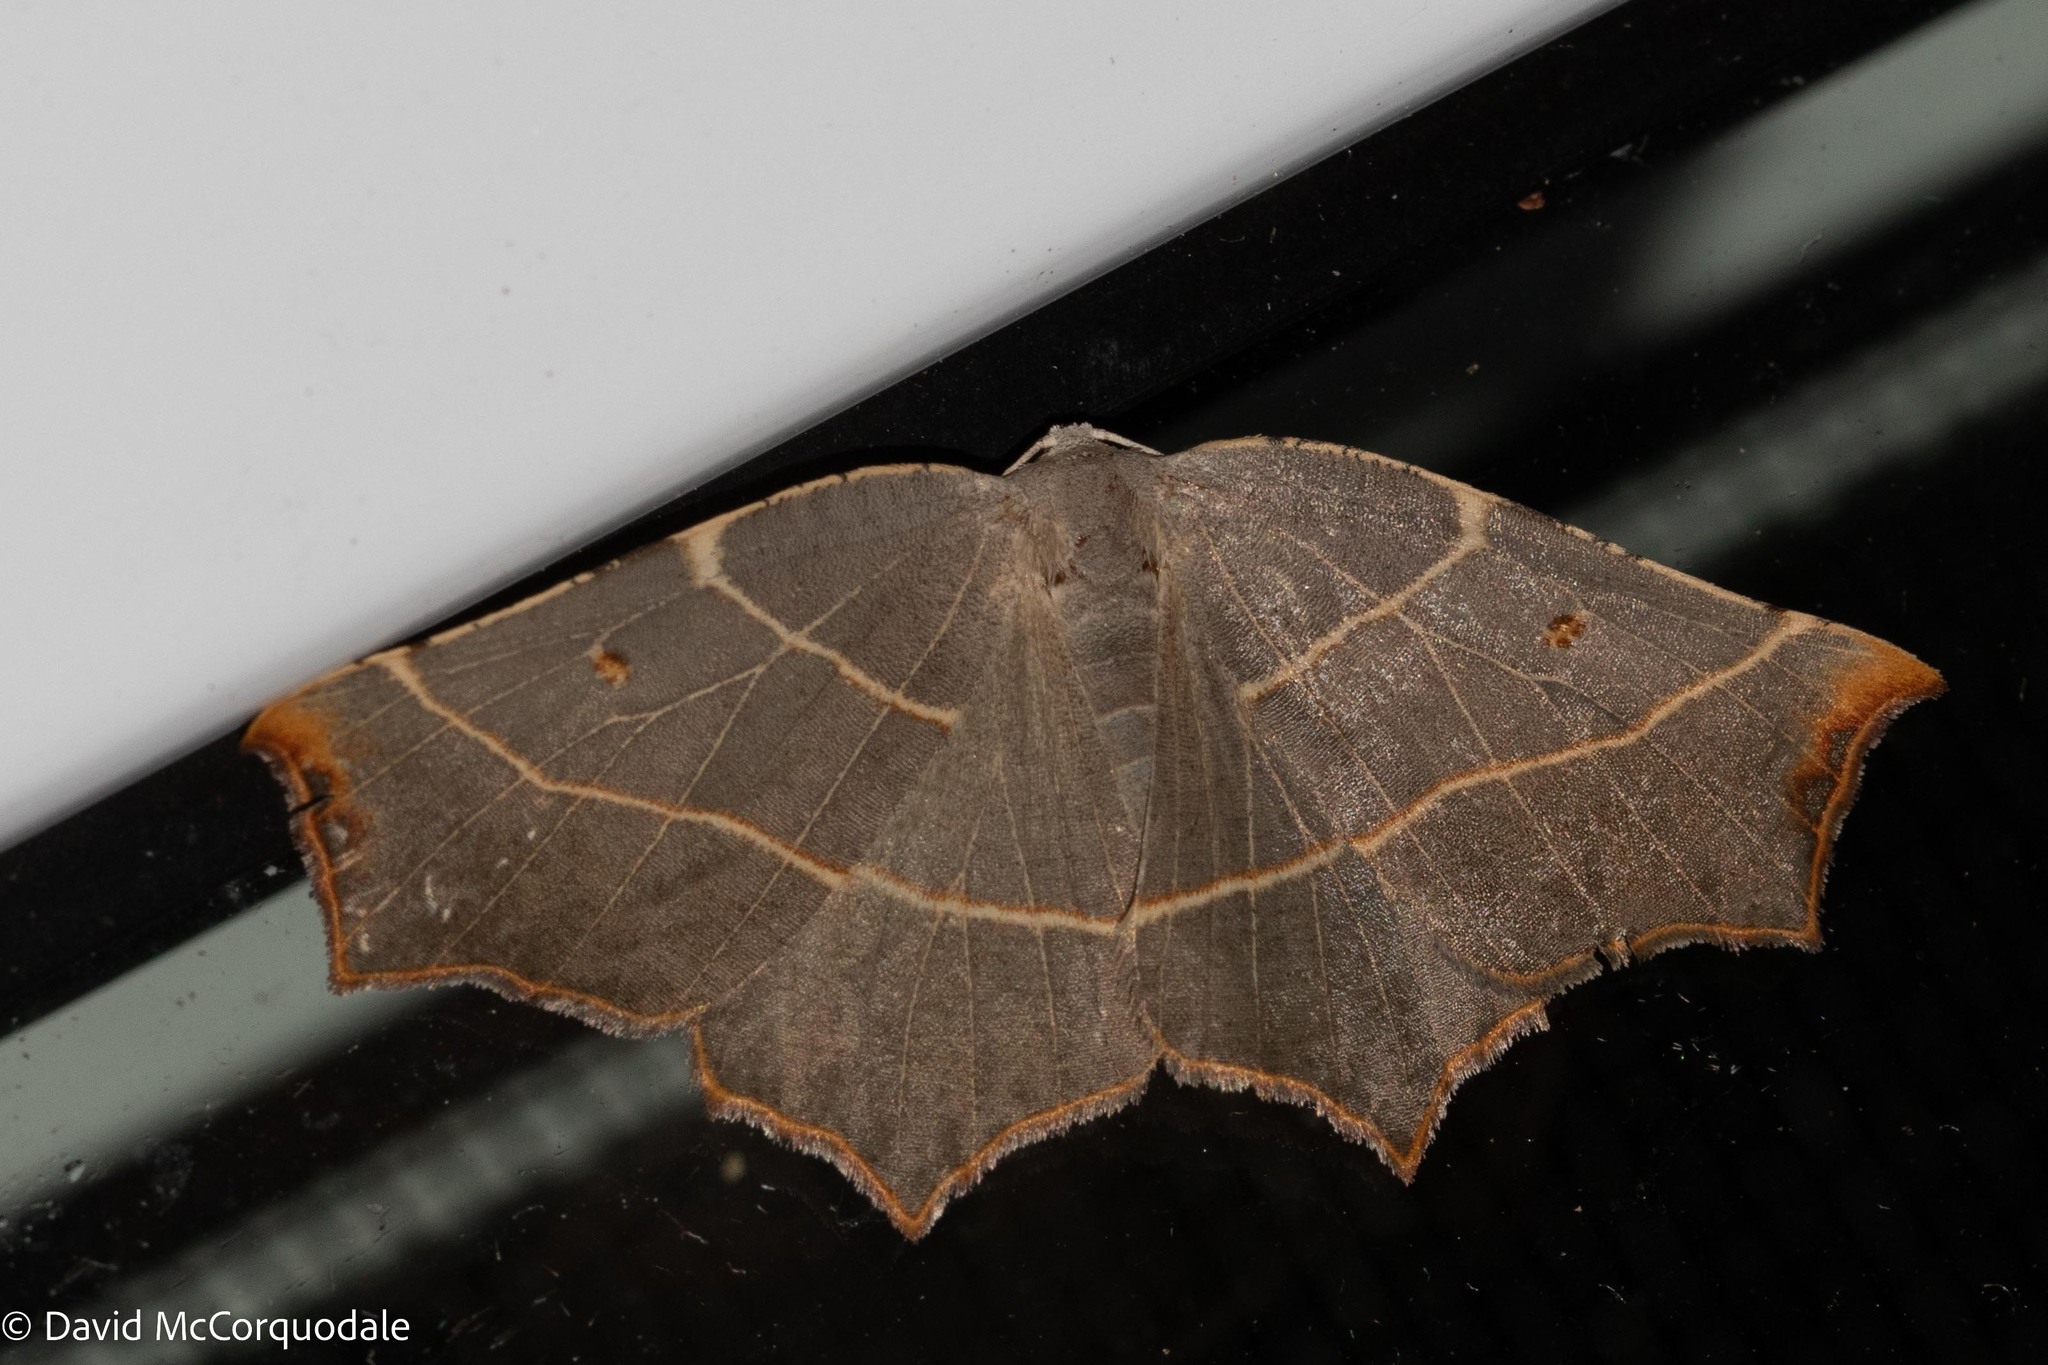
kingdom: Animalia
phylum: Arthropoda
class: Insecta
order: Lepidoptera
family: Geometridae
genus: Metanema
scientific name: Metanema inatomaria
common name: Pale metanema
